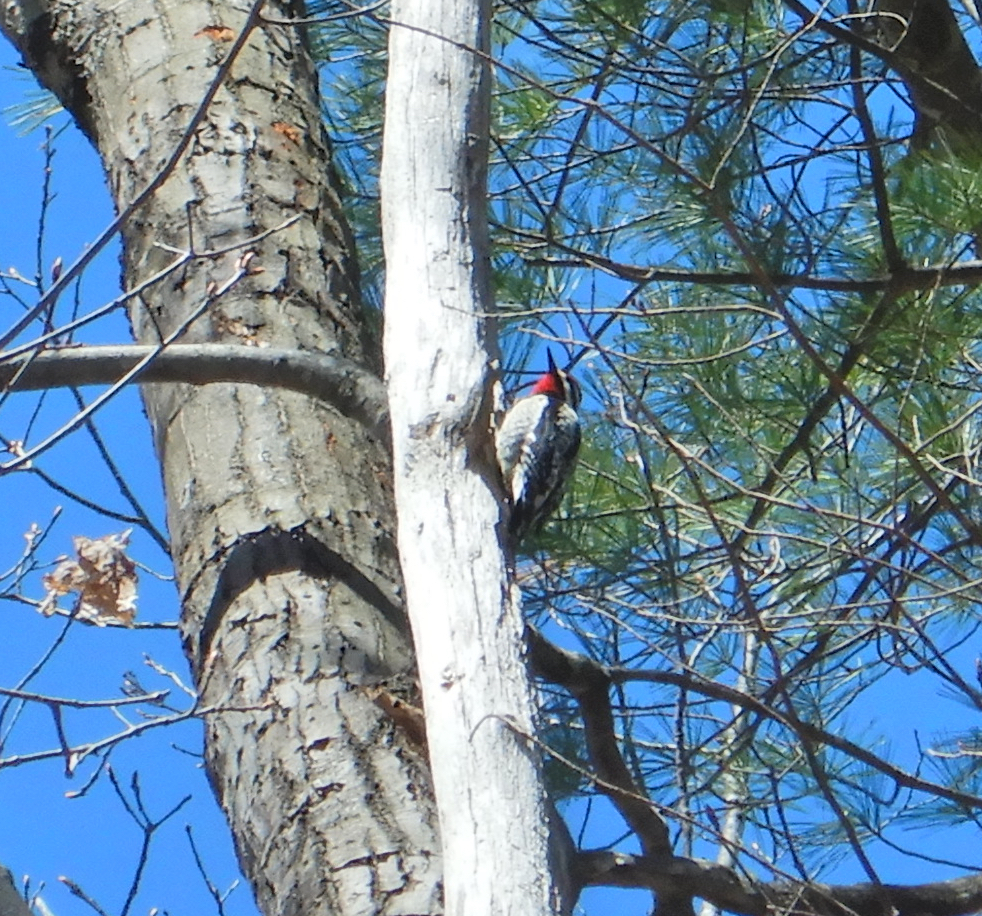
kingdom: Animalia
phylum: Chordata
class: Aves
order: Piciformes
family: Picidae
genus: Sphyrapicus
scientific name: Sphyrapicus varius
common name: Yellow-bellied sapsucker
